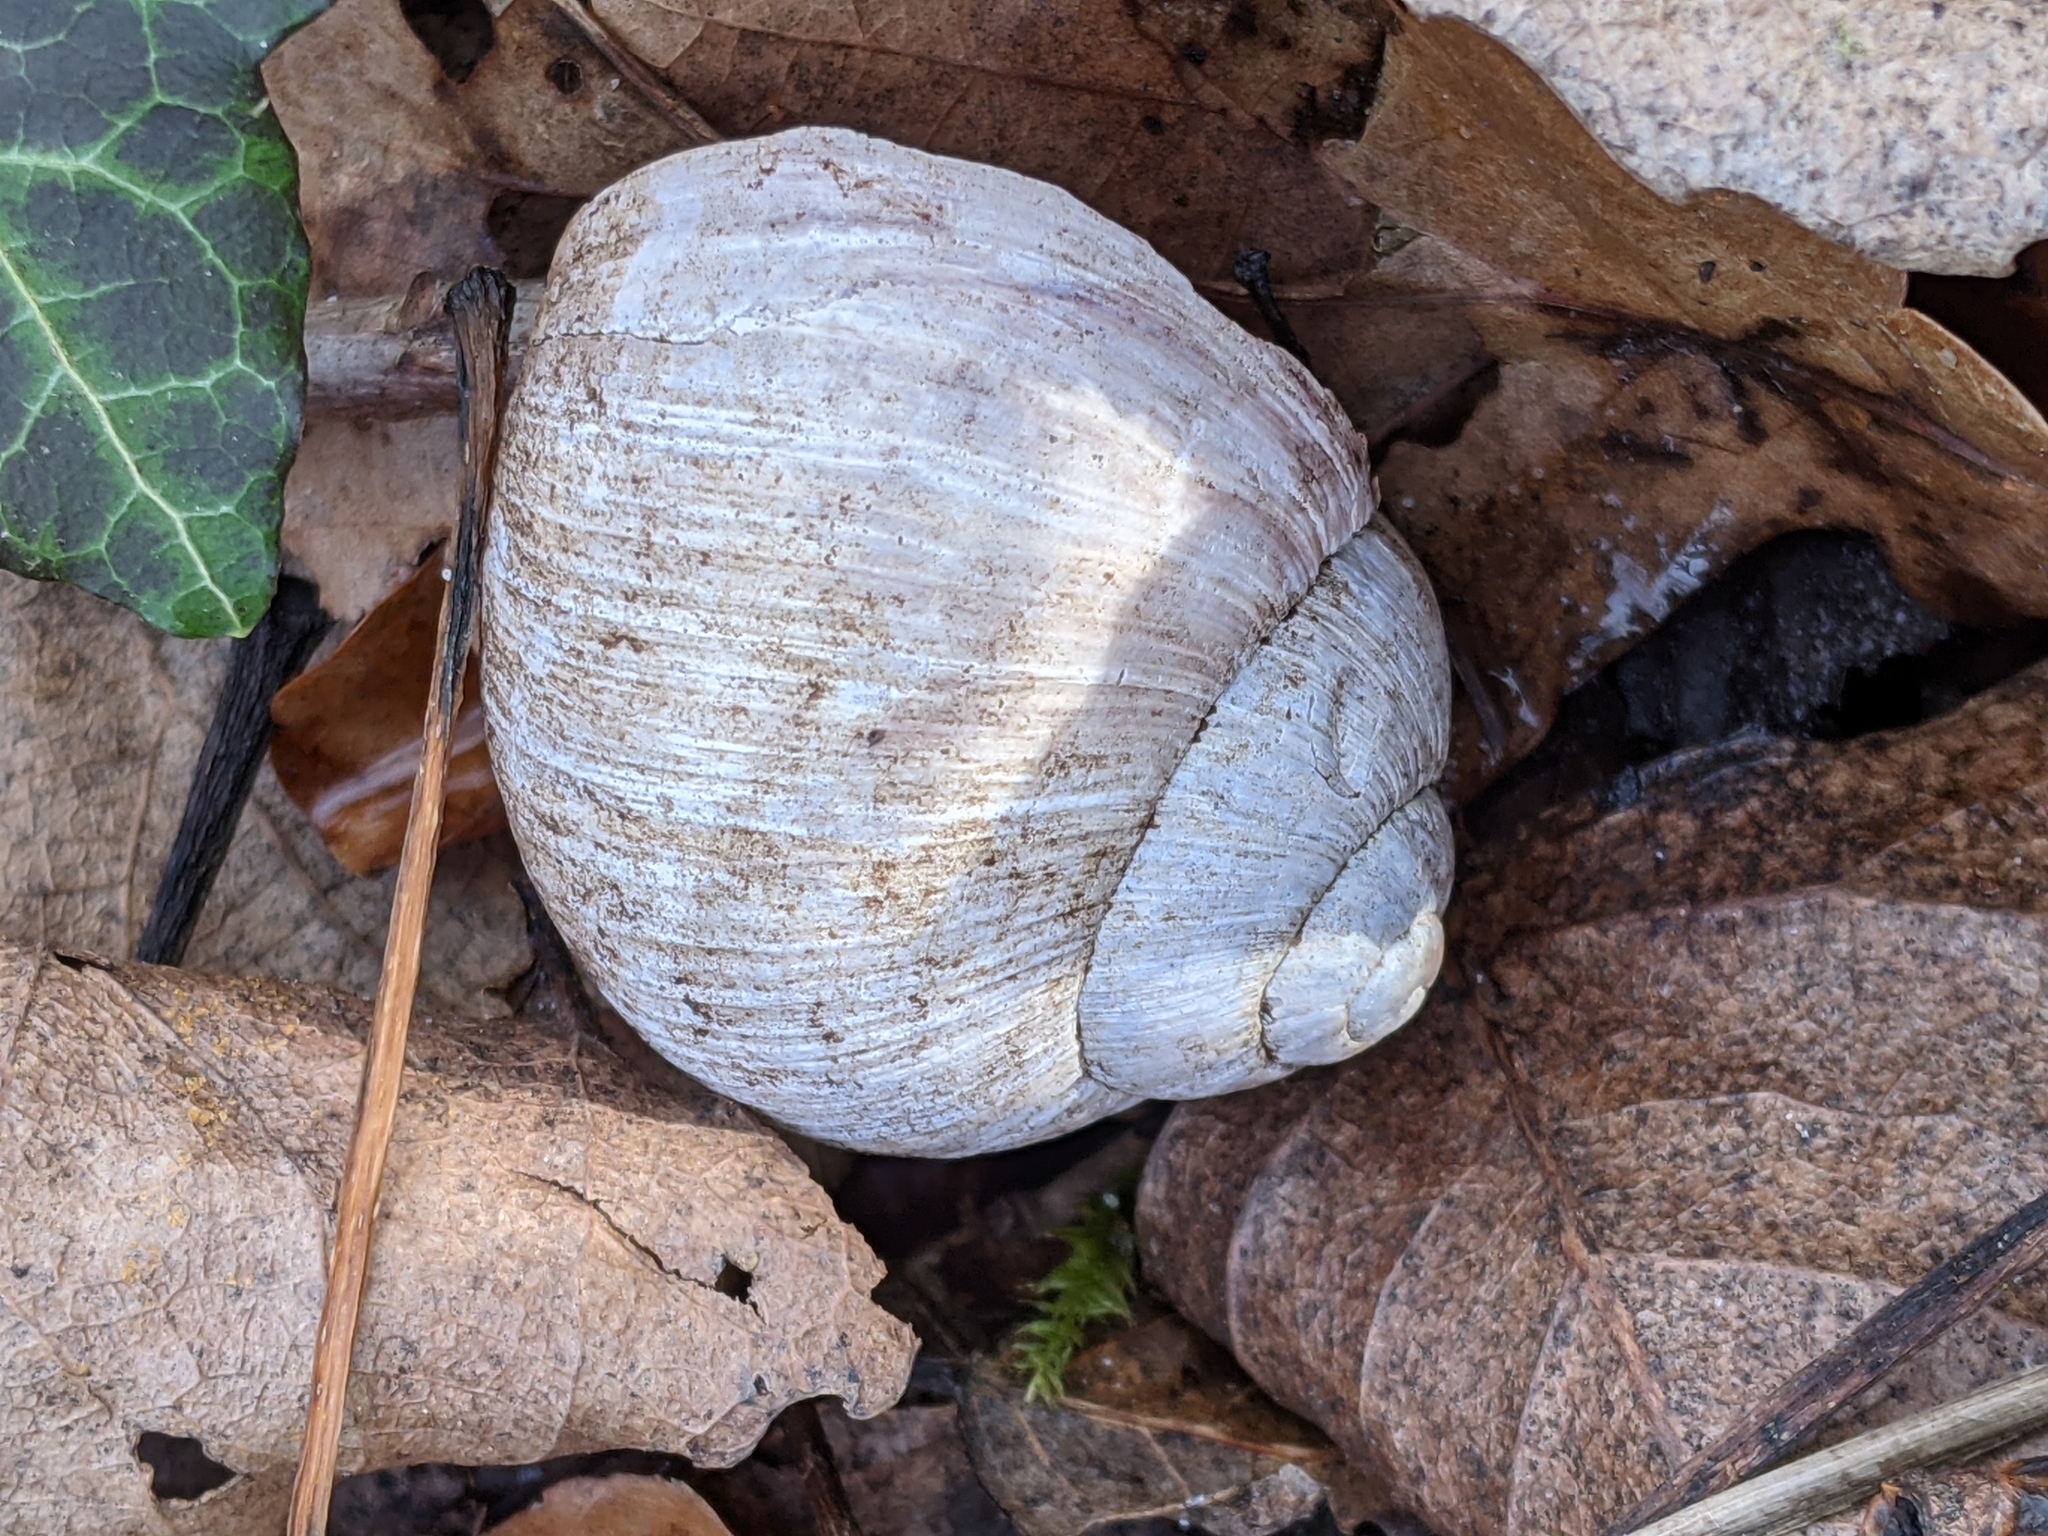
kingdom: Animalia
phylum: Mollusca
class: Gastropoda
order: Stylommatophora
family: Helicidae
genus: Helix
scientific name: Helix pomatia
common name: Roman snail
